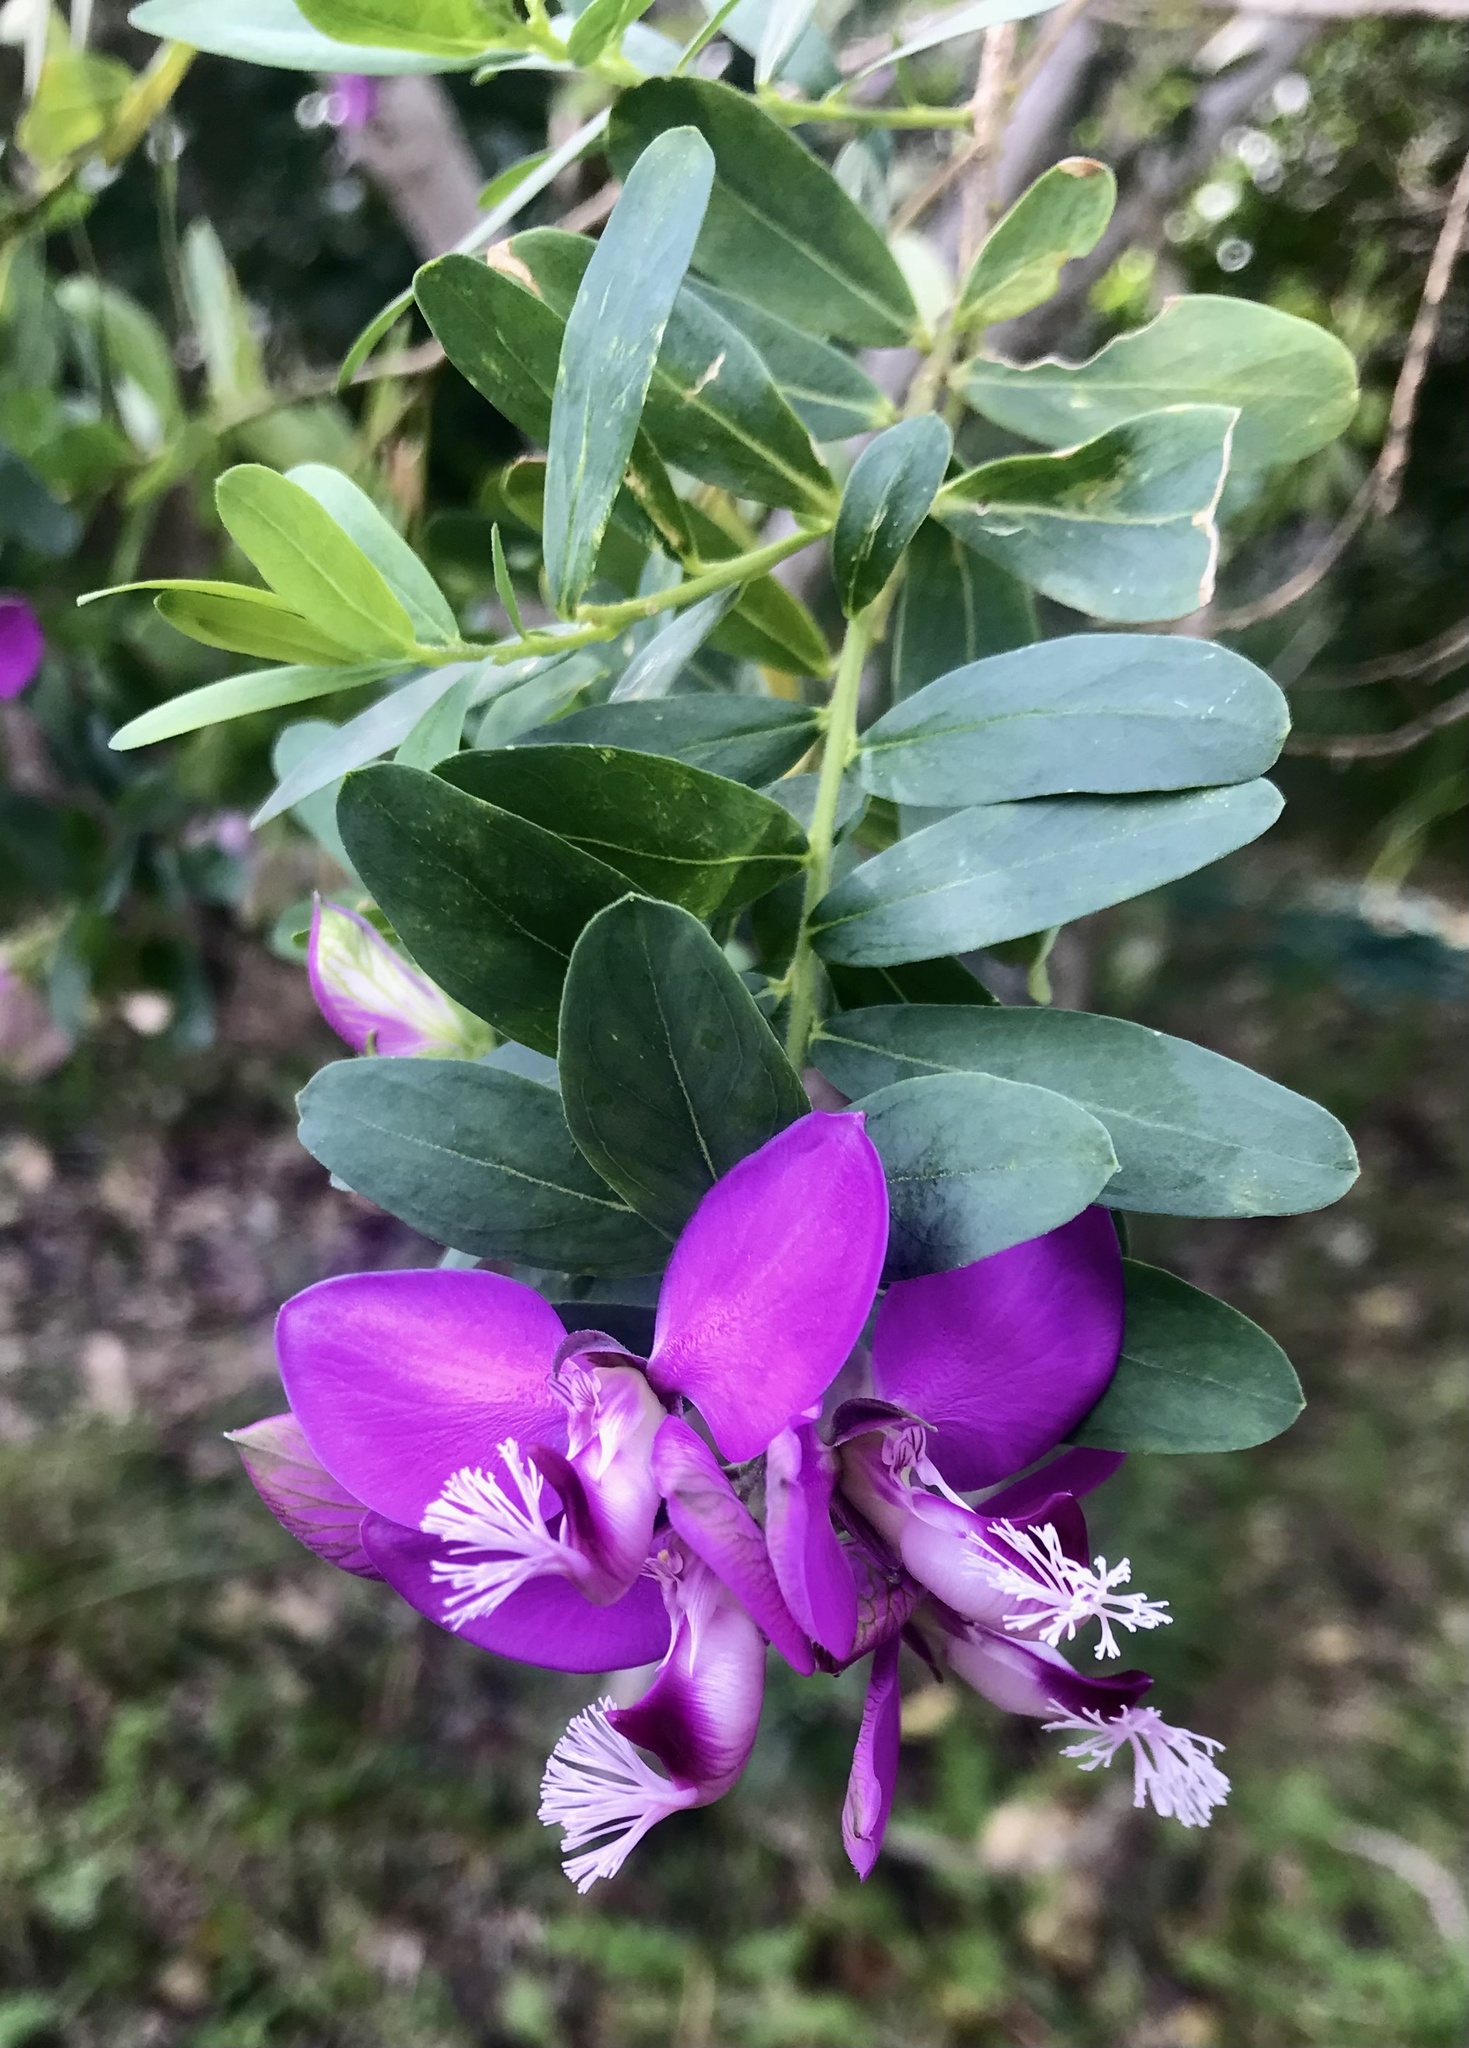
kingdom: Plantae
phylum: Tracheophyta
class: Magnoliopsida
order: Fabales
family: Polygalaceae
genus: Polygala
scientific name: Polygala myrtifolia
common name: Myrtle-leaf milkwort
